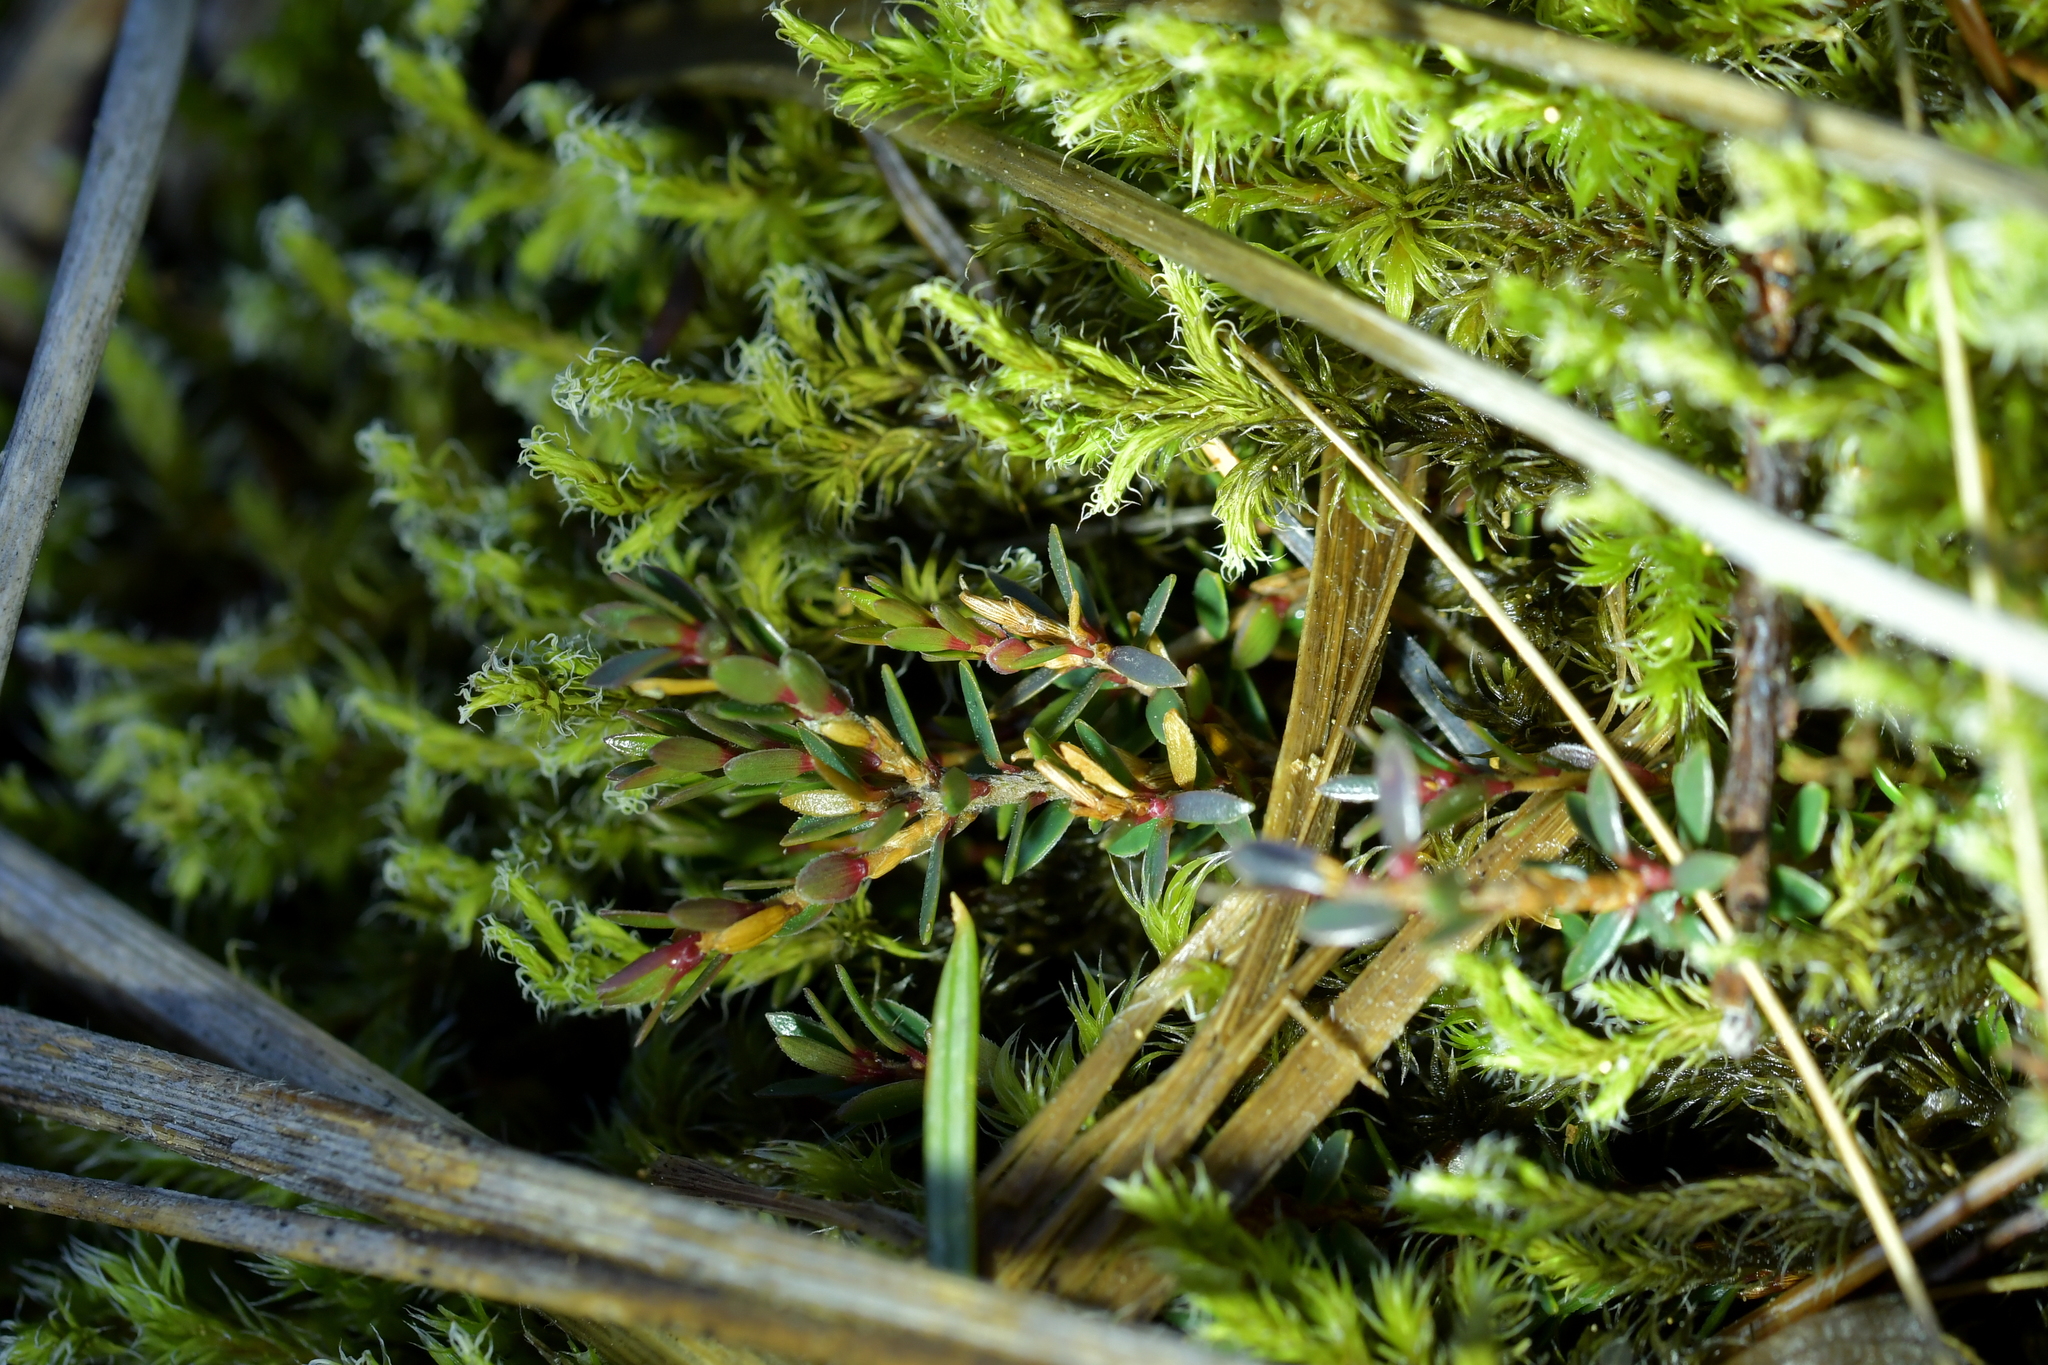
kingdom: Plantae
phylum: Tracheophyta
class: Magnoliopsida
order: Ericales
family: Ericaceae
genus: Pentachondra
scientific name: Pentachondra pumila
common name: Carpet-heath
